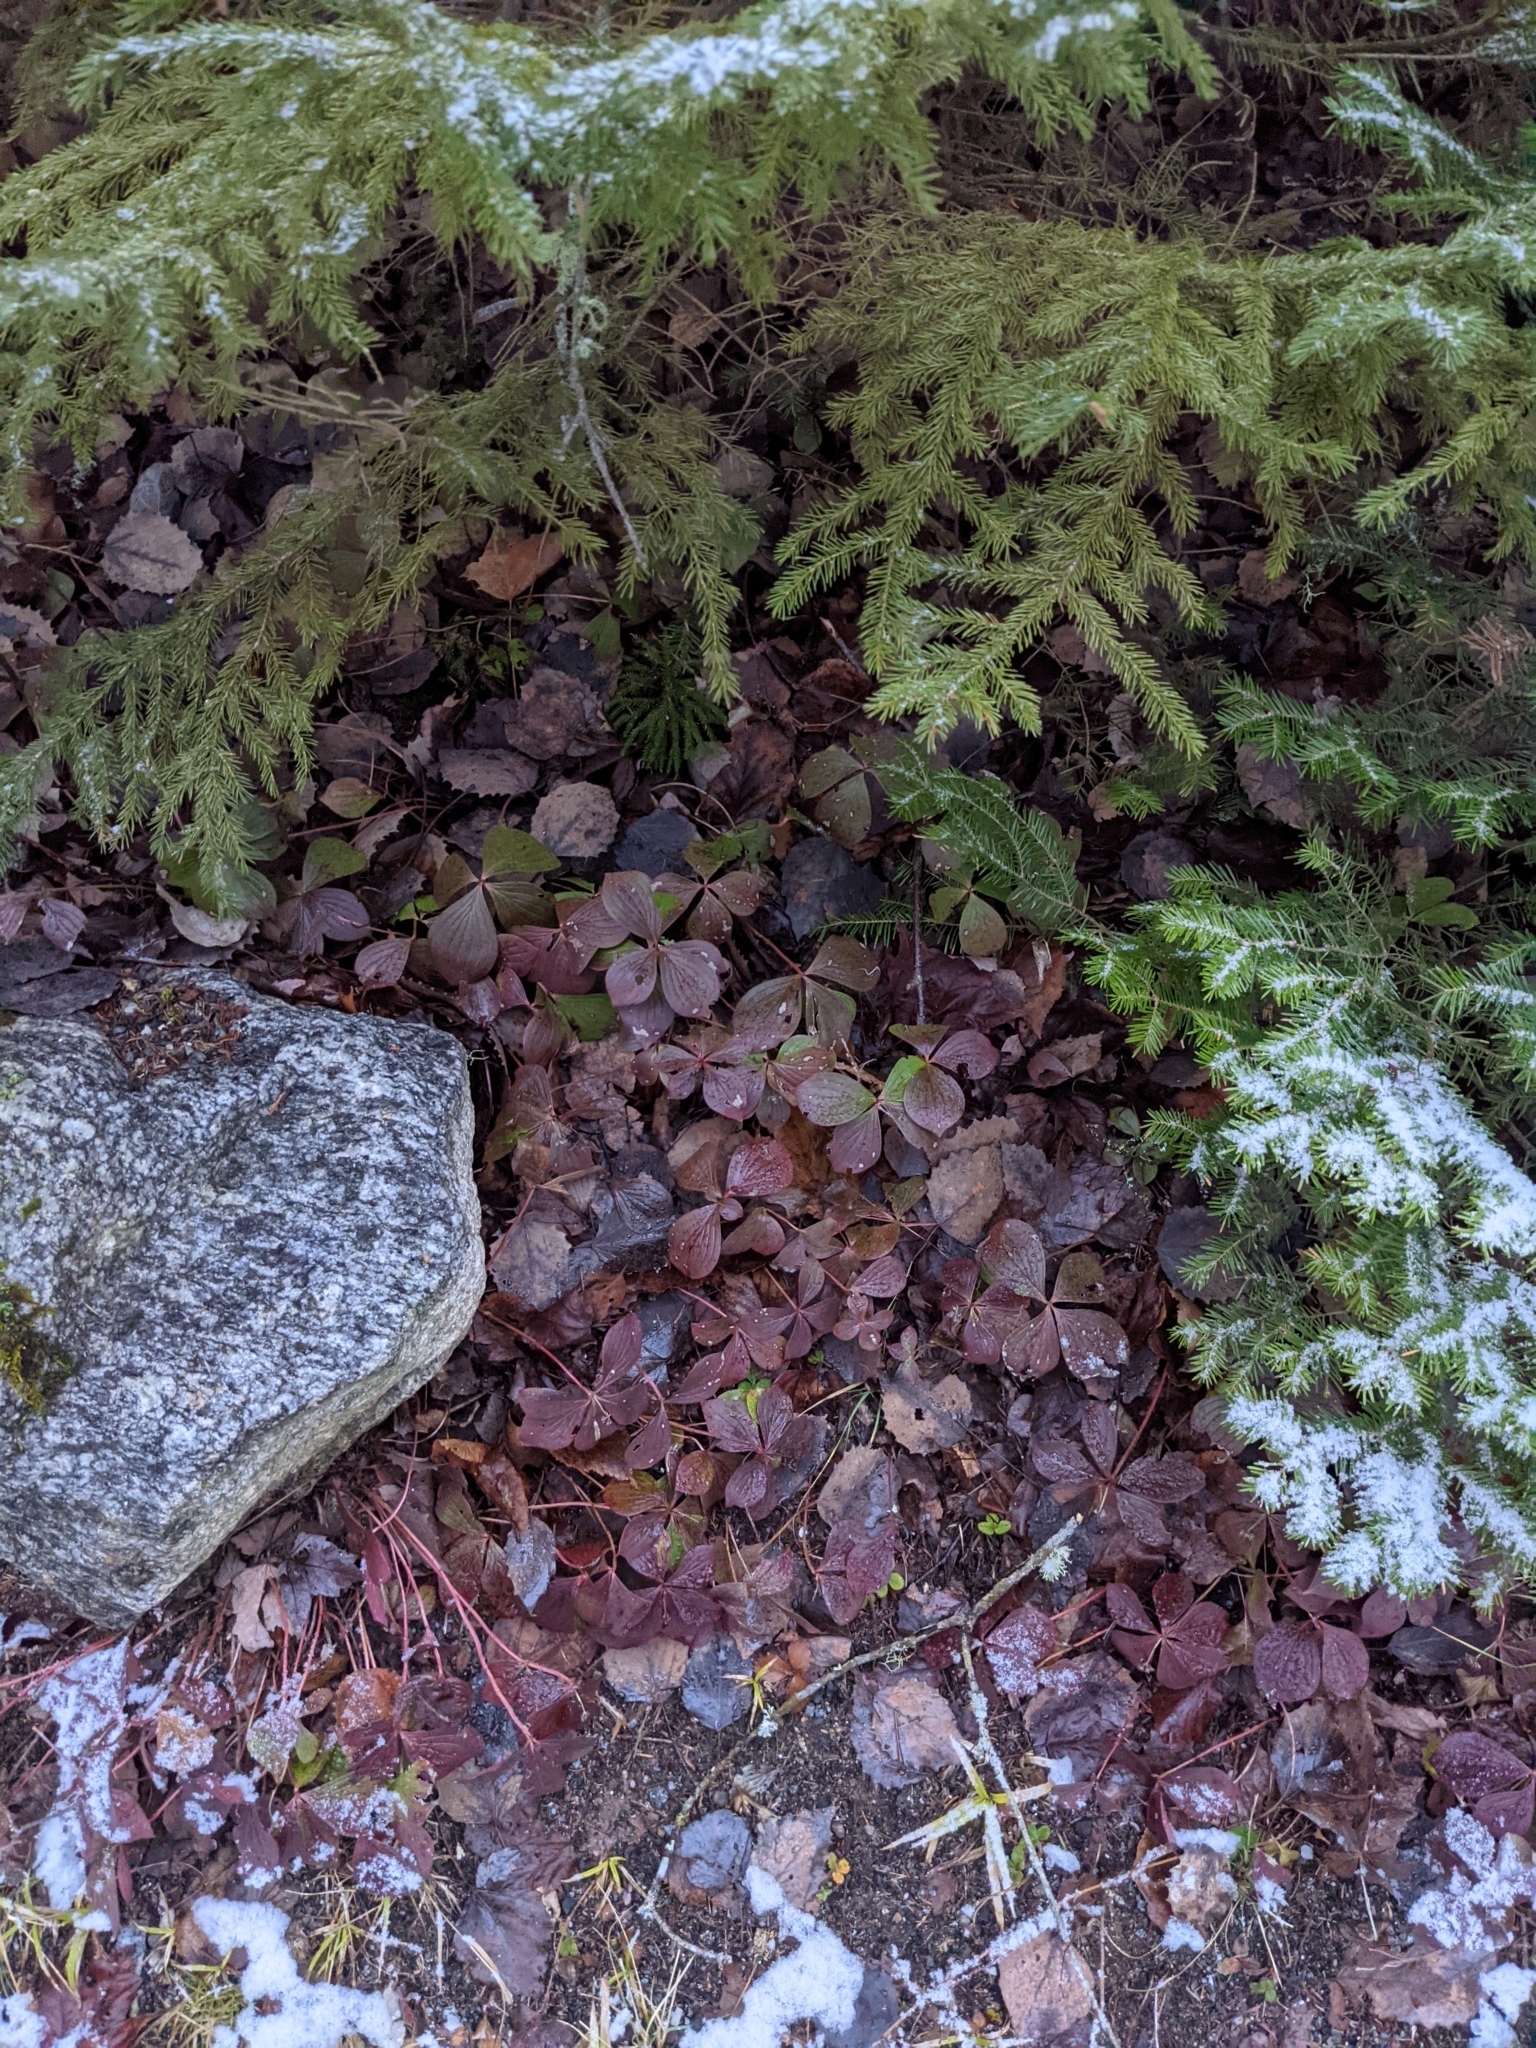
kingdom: Plantae
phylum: Tracheophyta
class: Magnoliopsida
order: Cornales
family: Cornaceae
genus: Cornus
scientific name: Cornus canadensis
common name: Creeping dogwood
